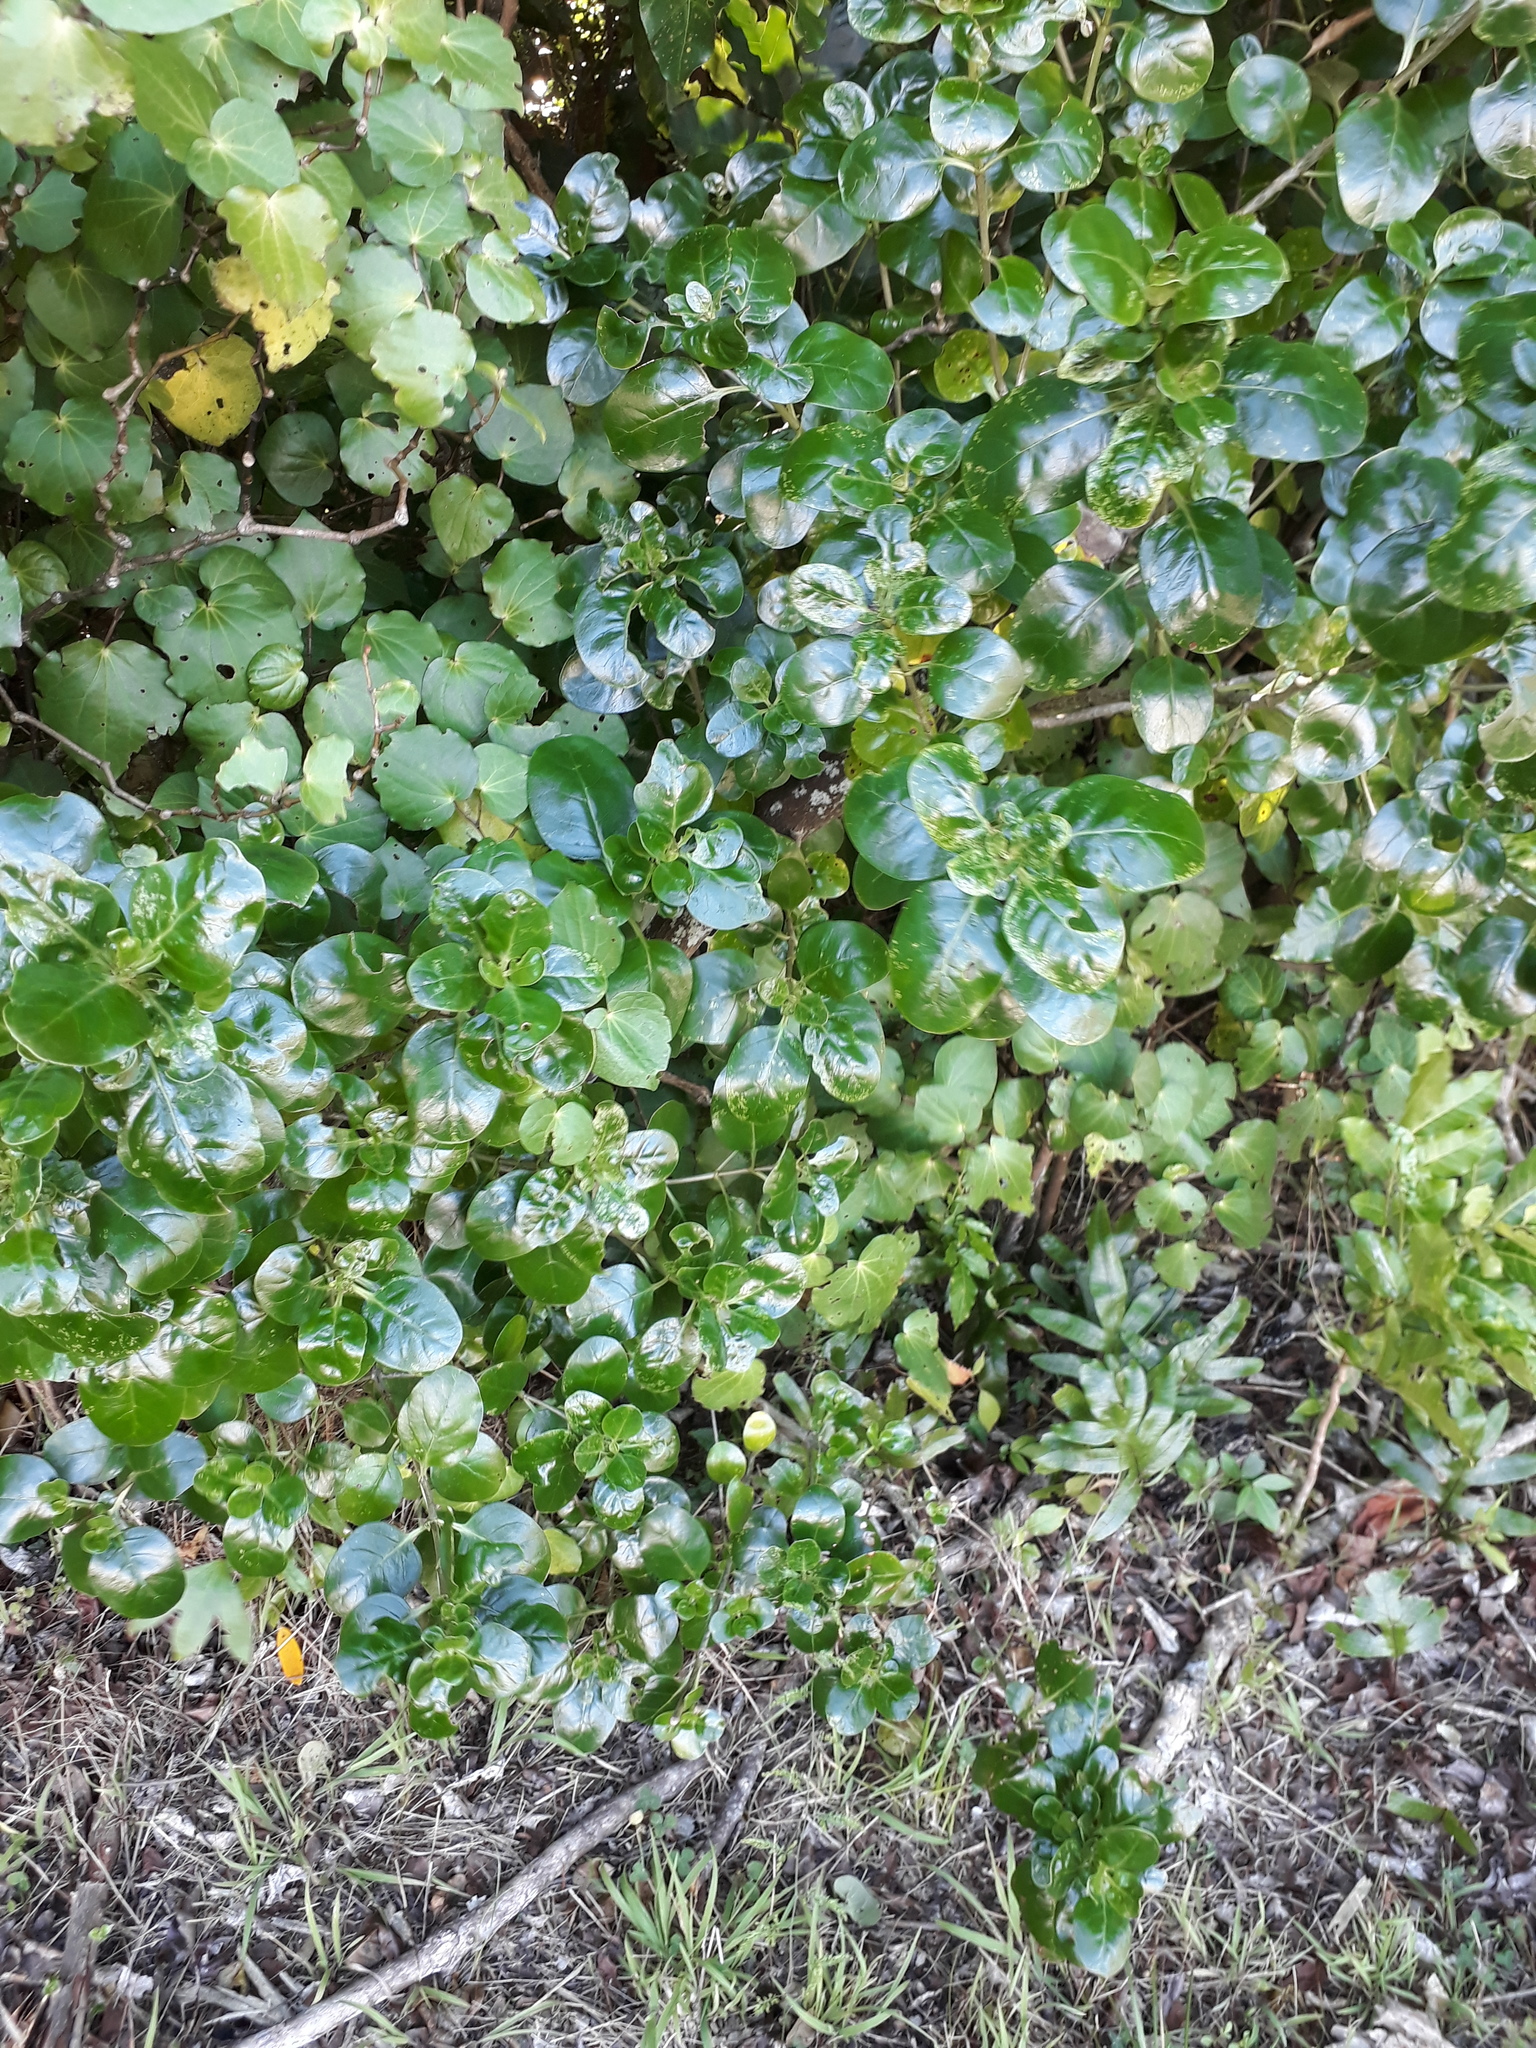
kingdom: Plantae
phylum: Tracheophyta
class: Magnoliopsida
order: Gentianales
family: Rubiaceae
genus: Coprosma
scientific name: Coprosma repens
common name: Tree bedstraw
